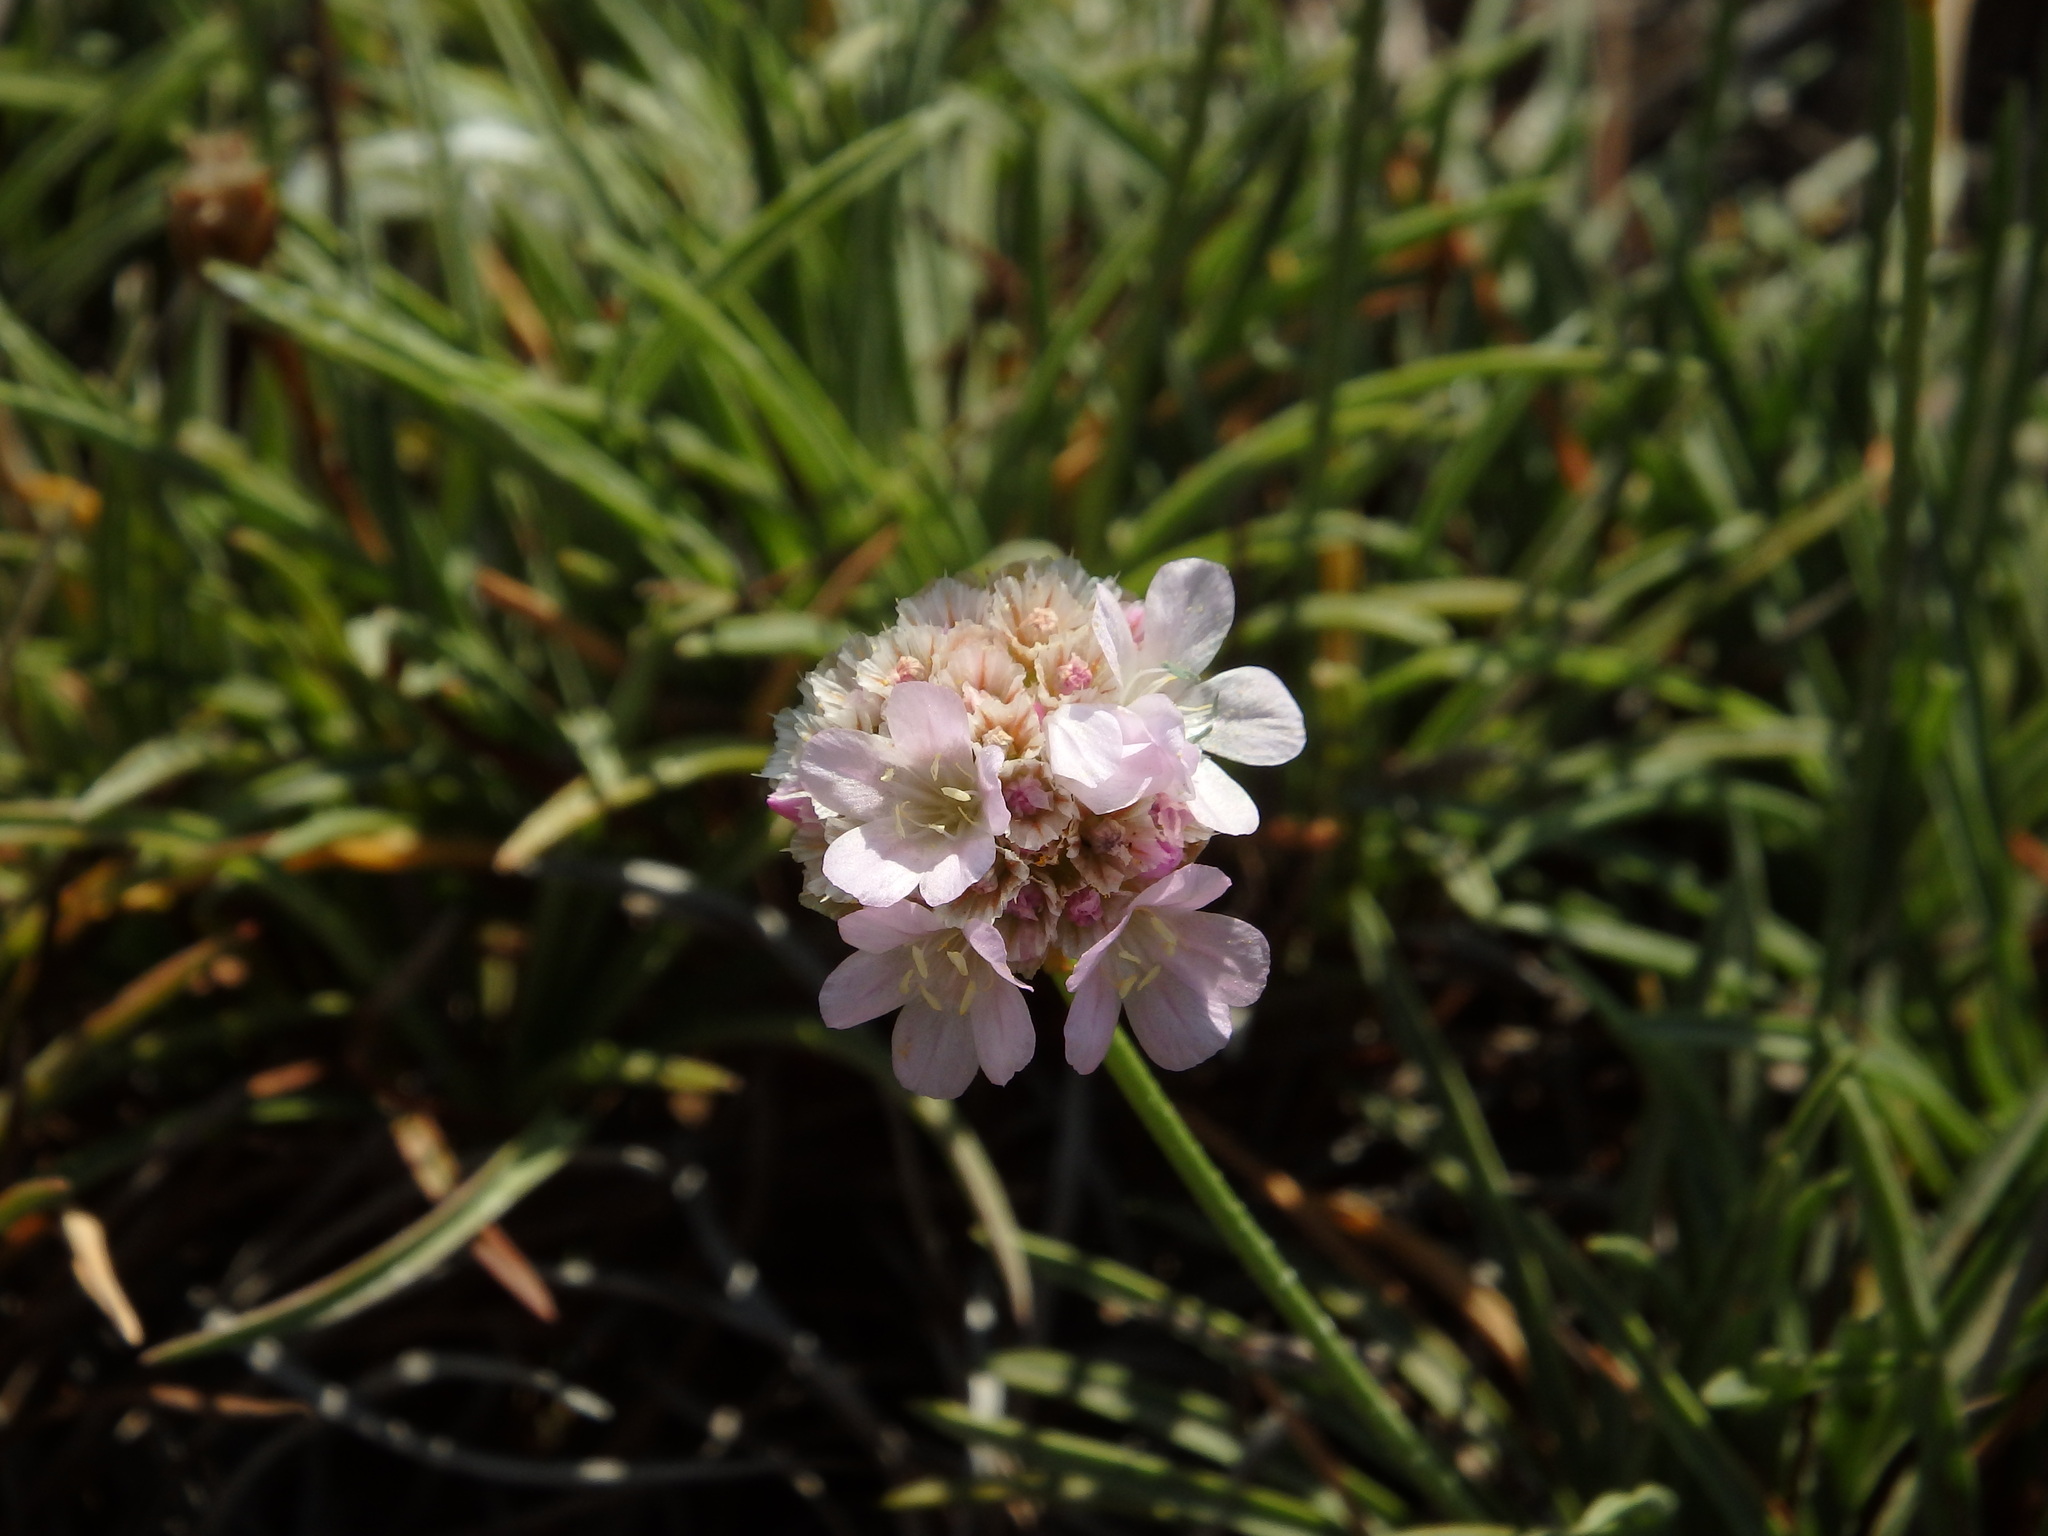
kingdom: Plantae
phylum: Tracheophyta
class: Magnoliopsida
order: Caryophyllales
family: Plumbaginaceae
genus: Armeria
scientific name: Armeria welwitschii
